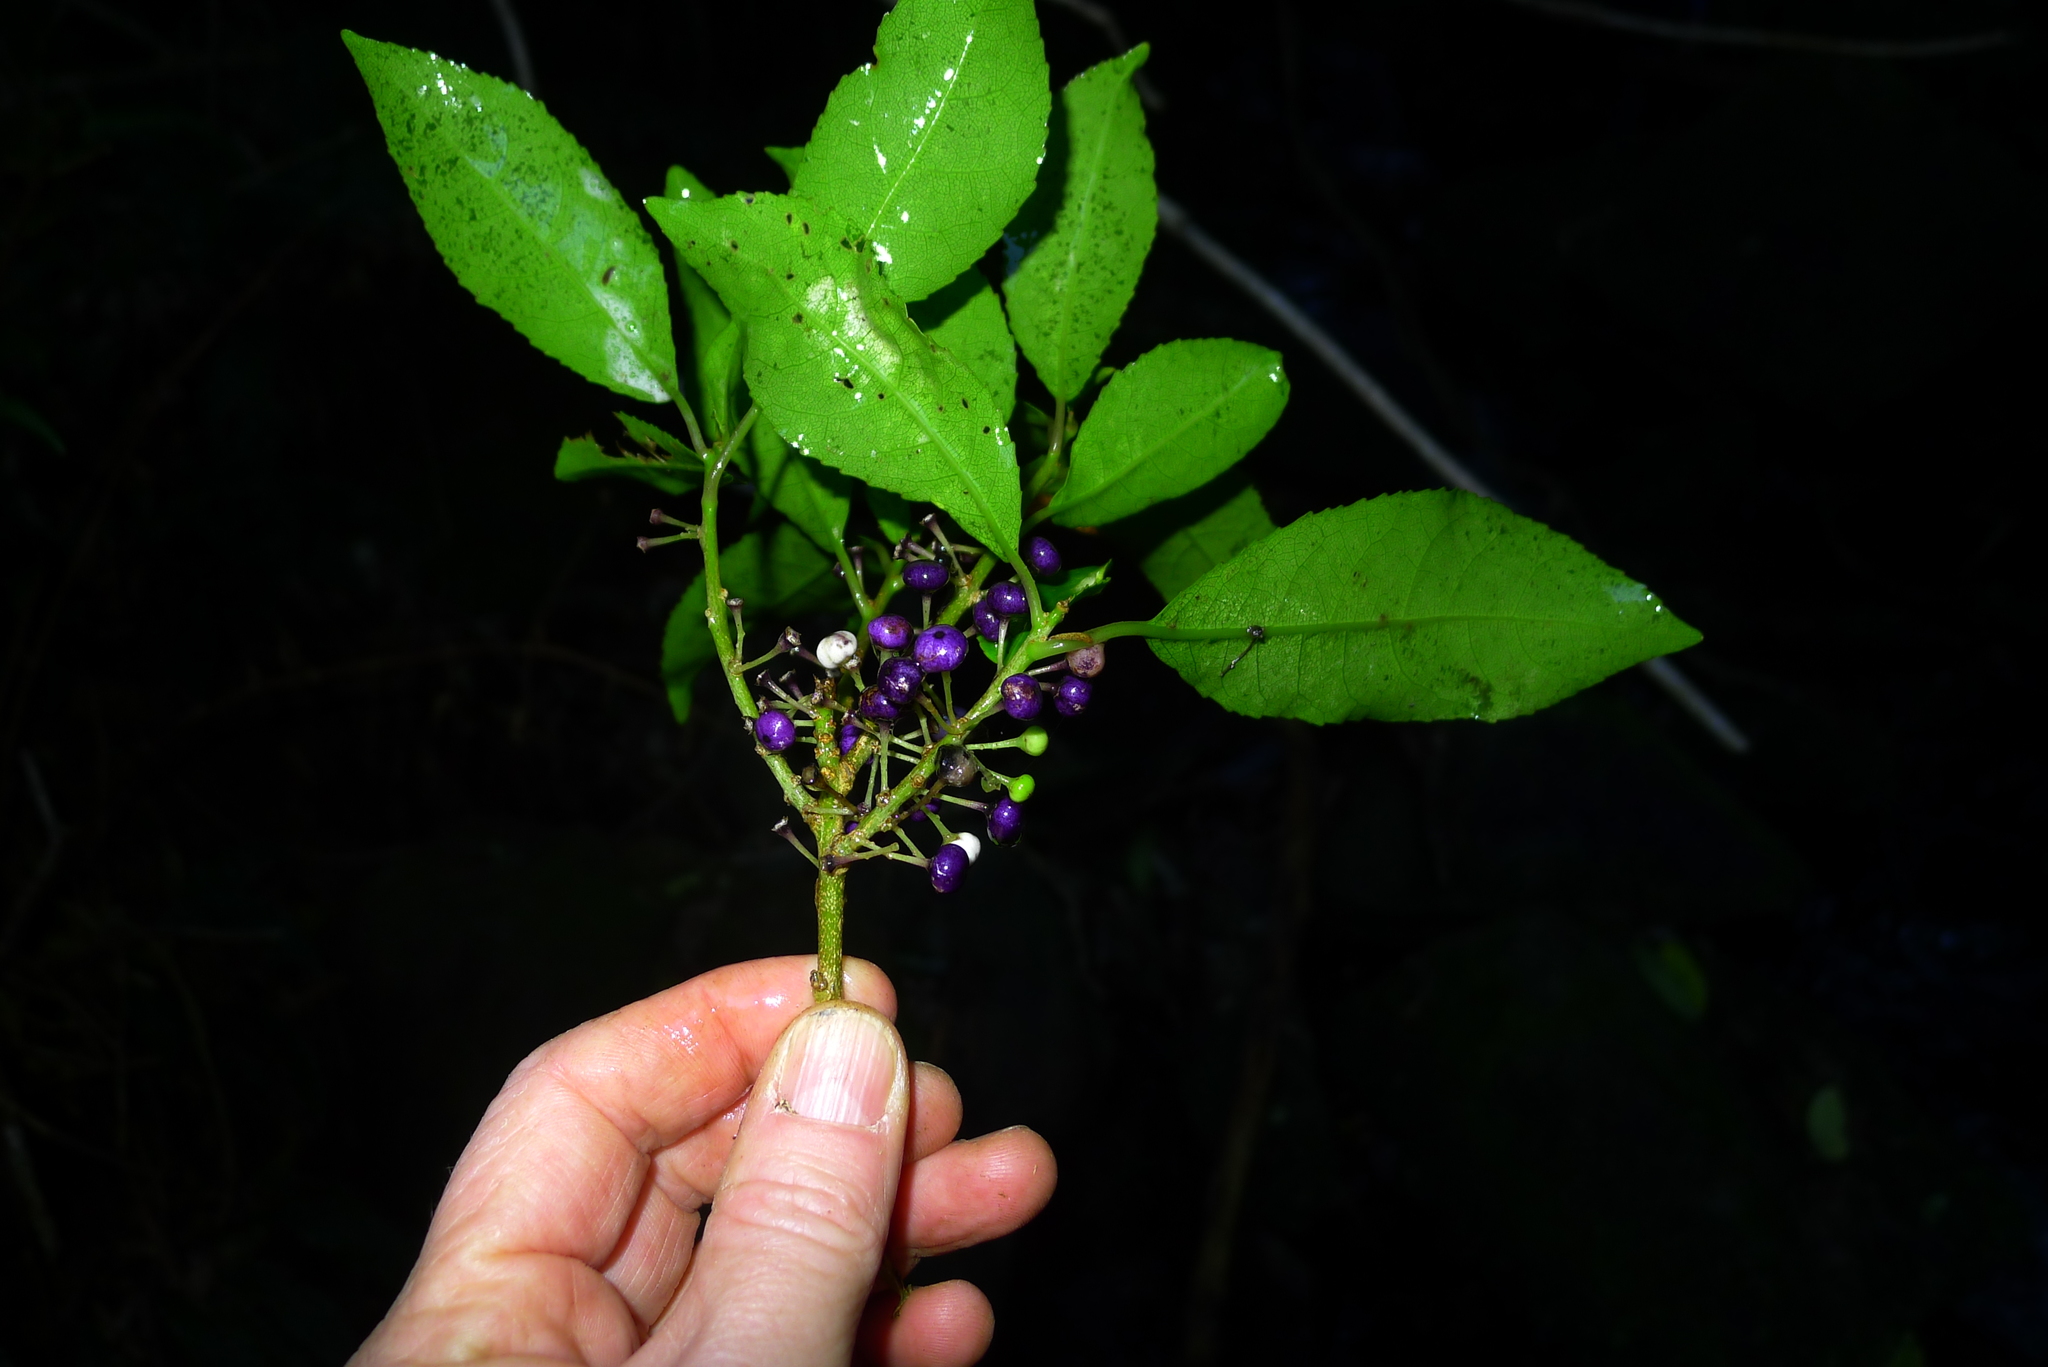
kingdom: Plantae
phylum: Tracheophyta
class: Magnoliopsida
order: Malpighiales
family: Violaceae
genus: Melicytus
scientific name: Melicytus ramiflorus
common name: Mahoe
